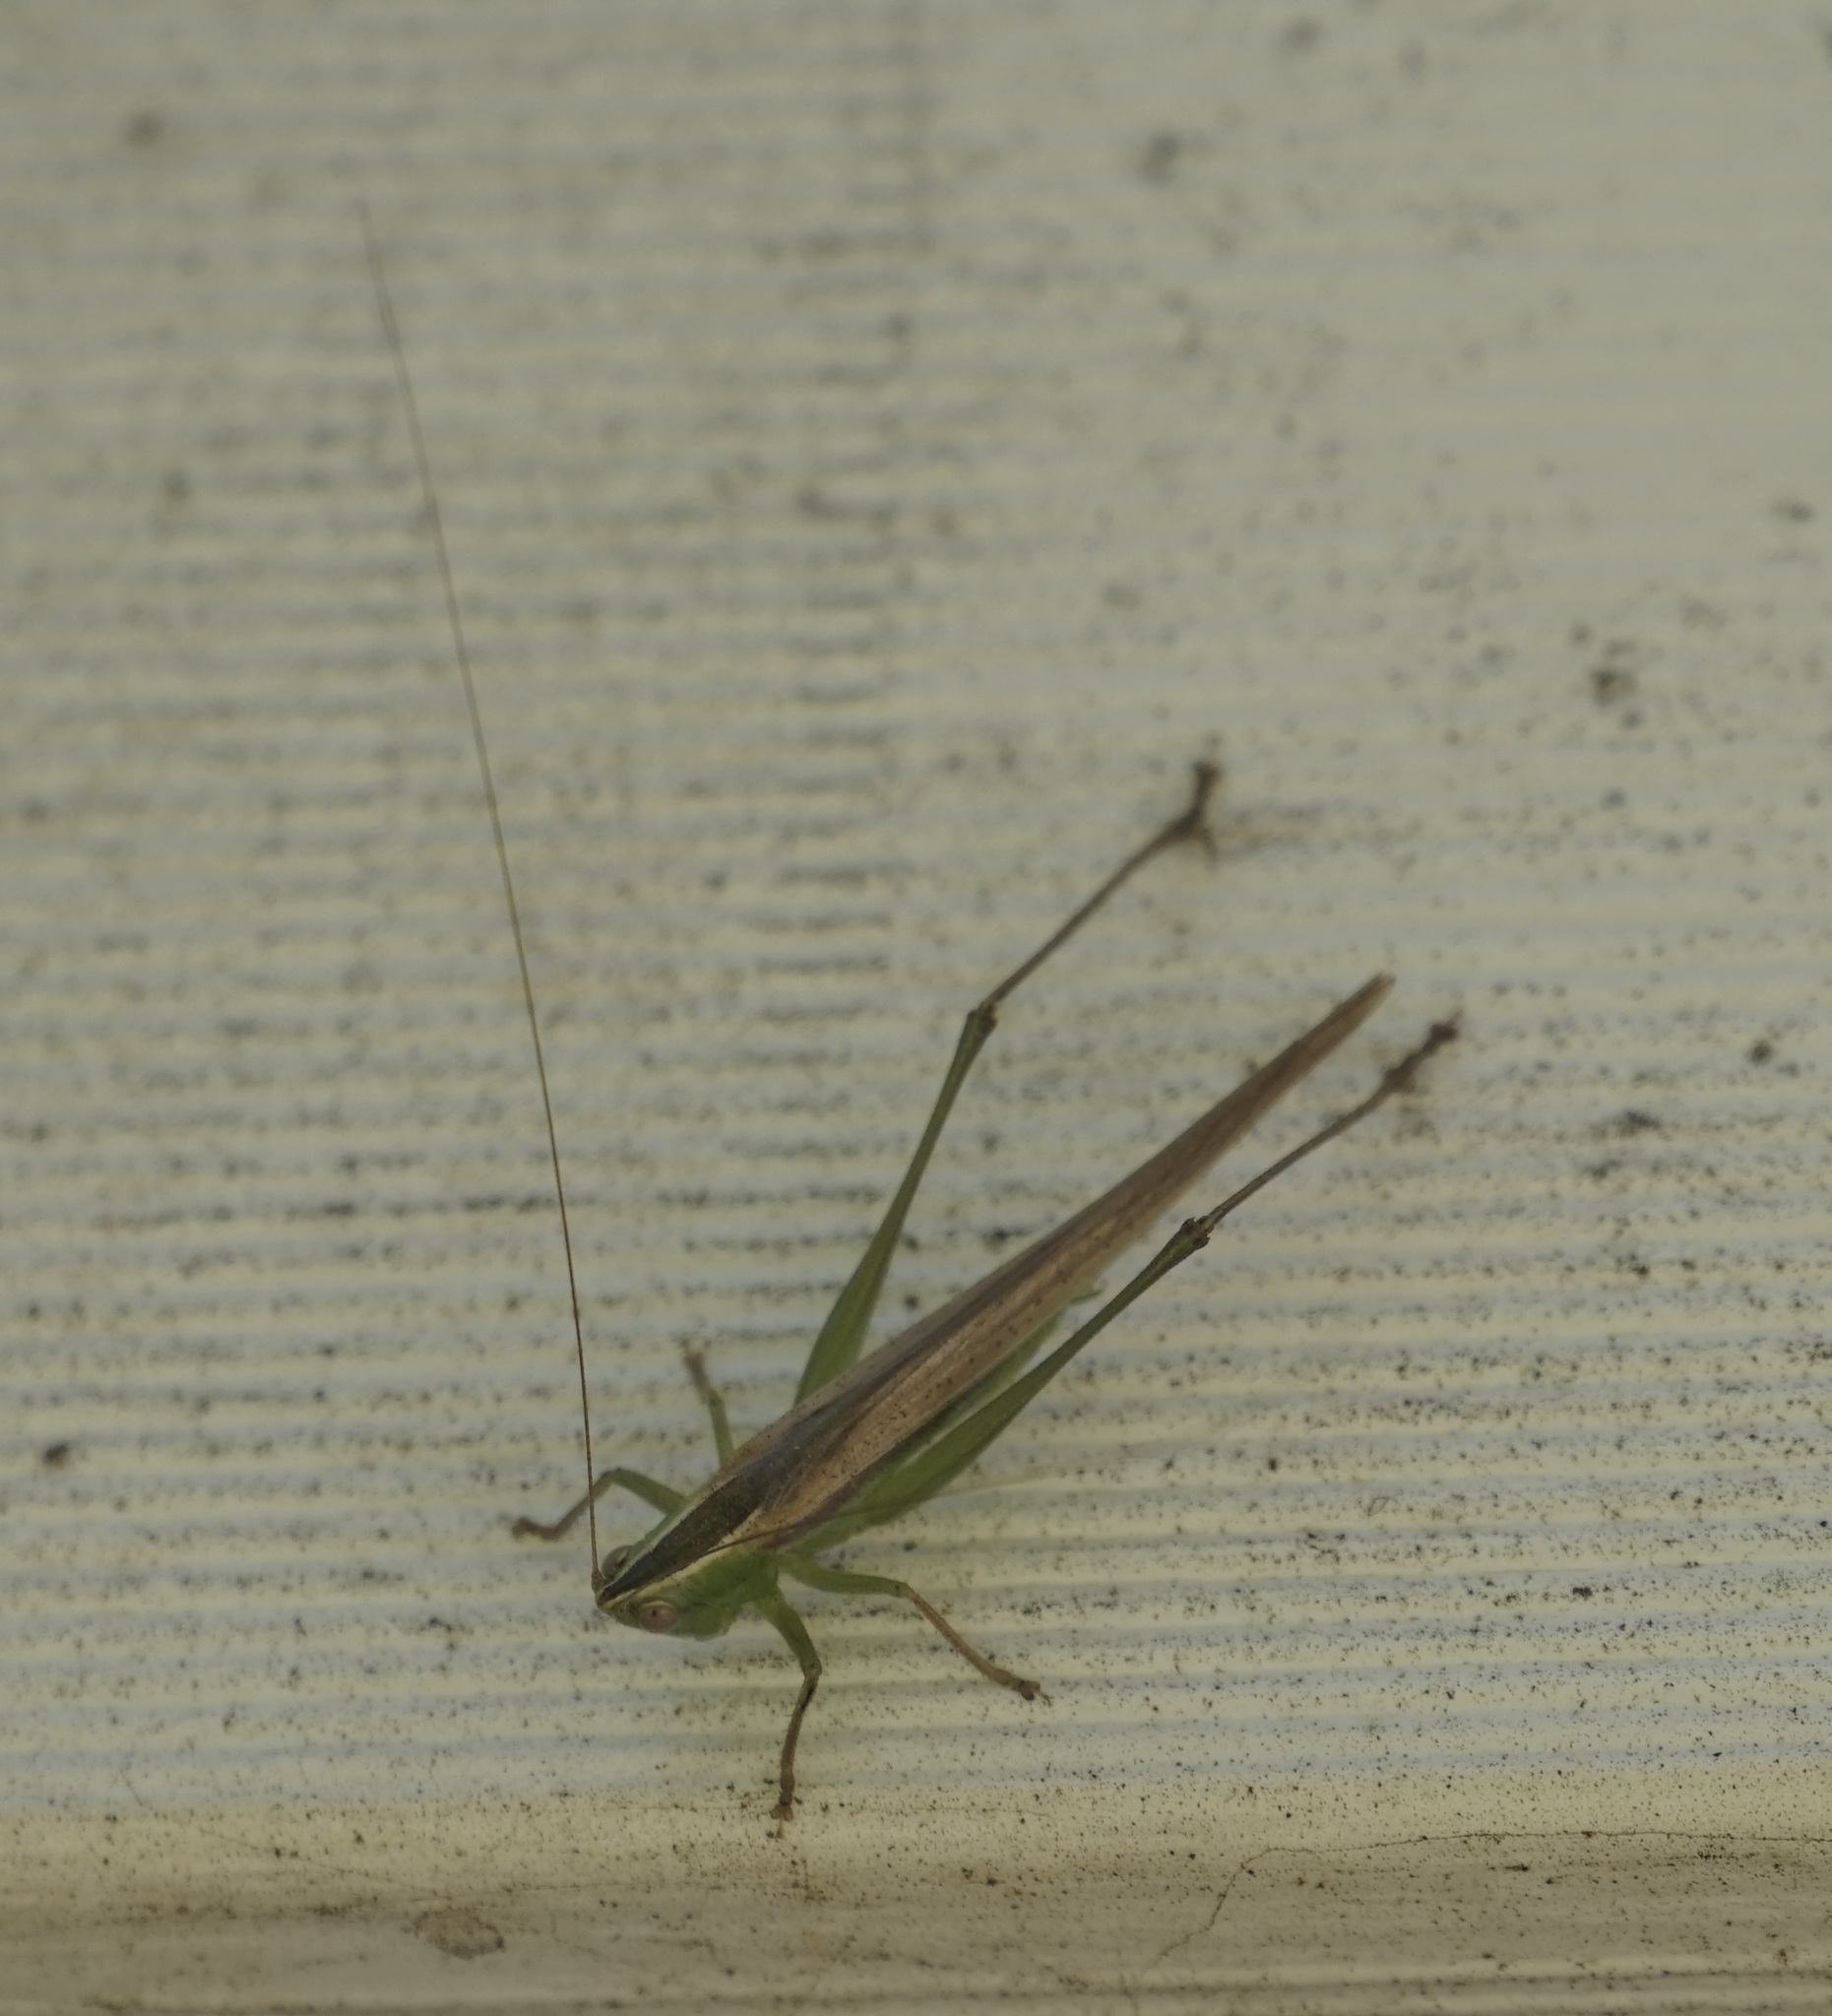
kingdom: Animalia
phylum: Arthropoda
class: Insecta
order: Orthoptera
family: Tettigoniidae
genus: Conocephalus
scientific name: Conocephalus upoluensis
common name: Upolu meadow katydid
